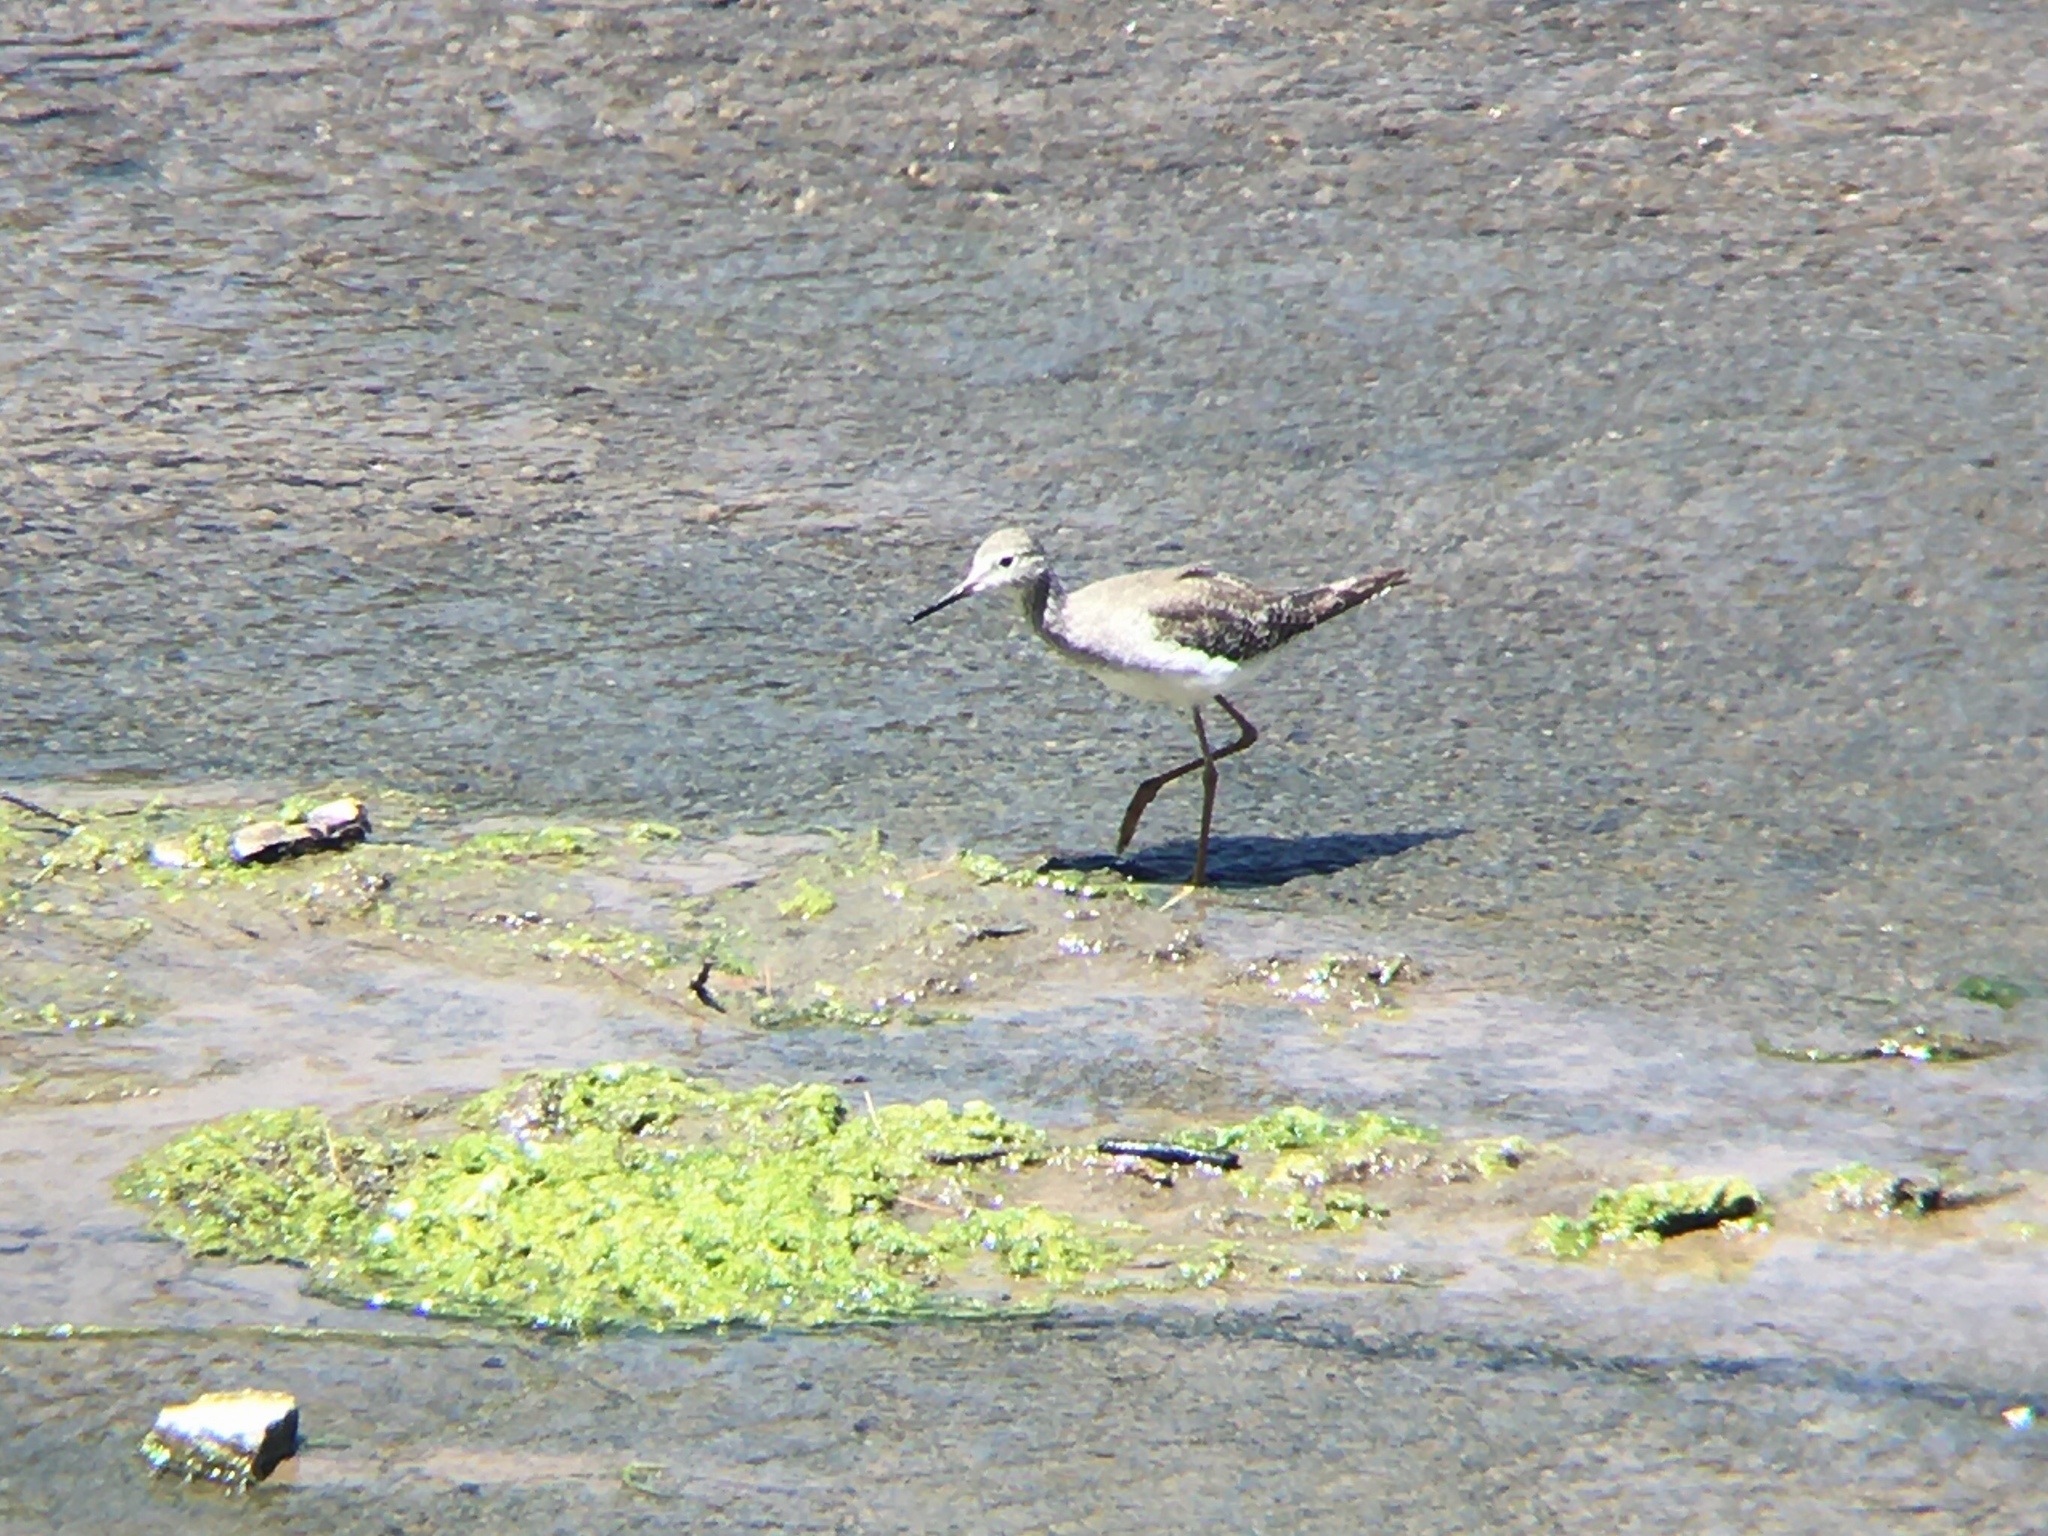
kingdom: Animalia
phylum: Chordata
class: Aves
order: Charadriiformes
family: Scolopacidae
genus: Tringa
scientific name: Tringa flavipes
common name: Lesser yellowlegs
